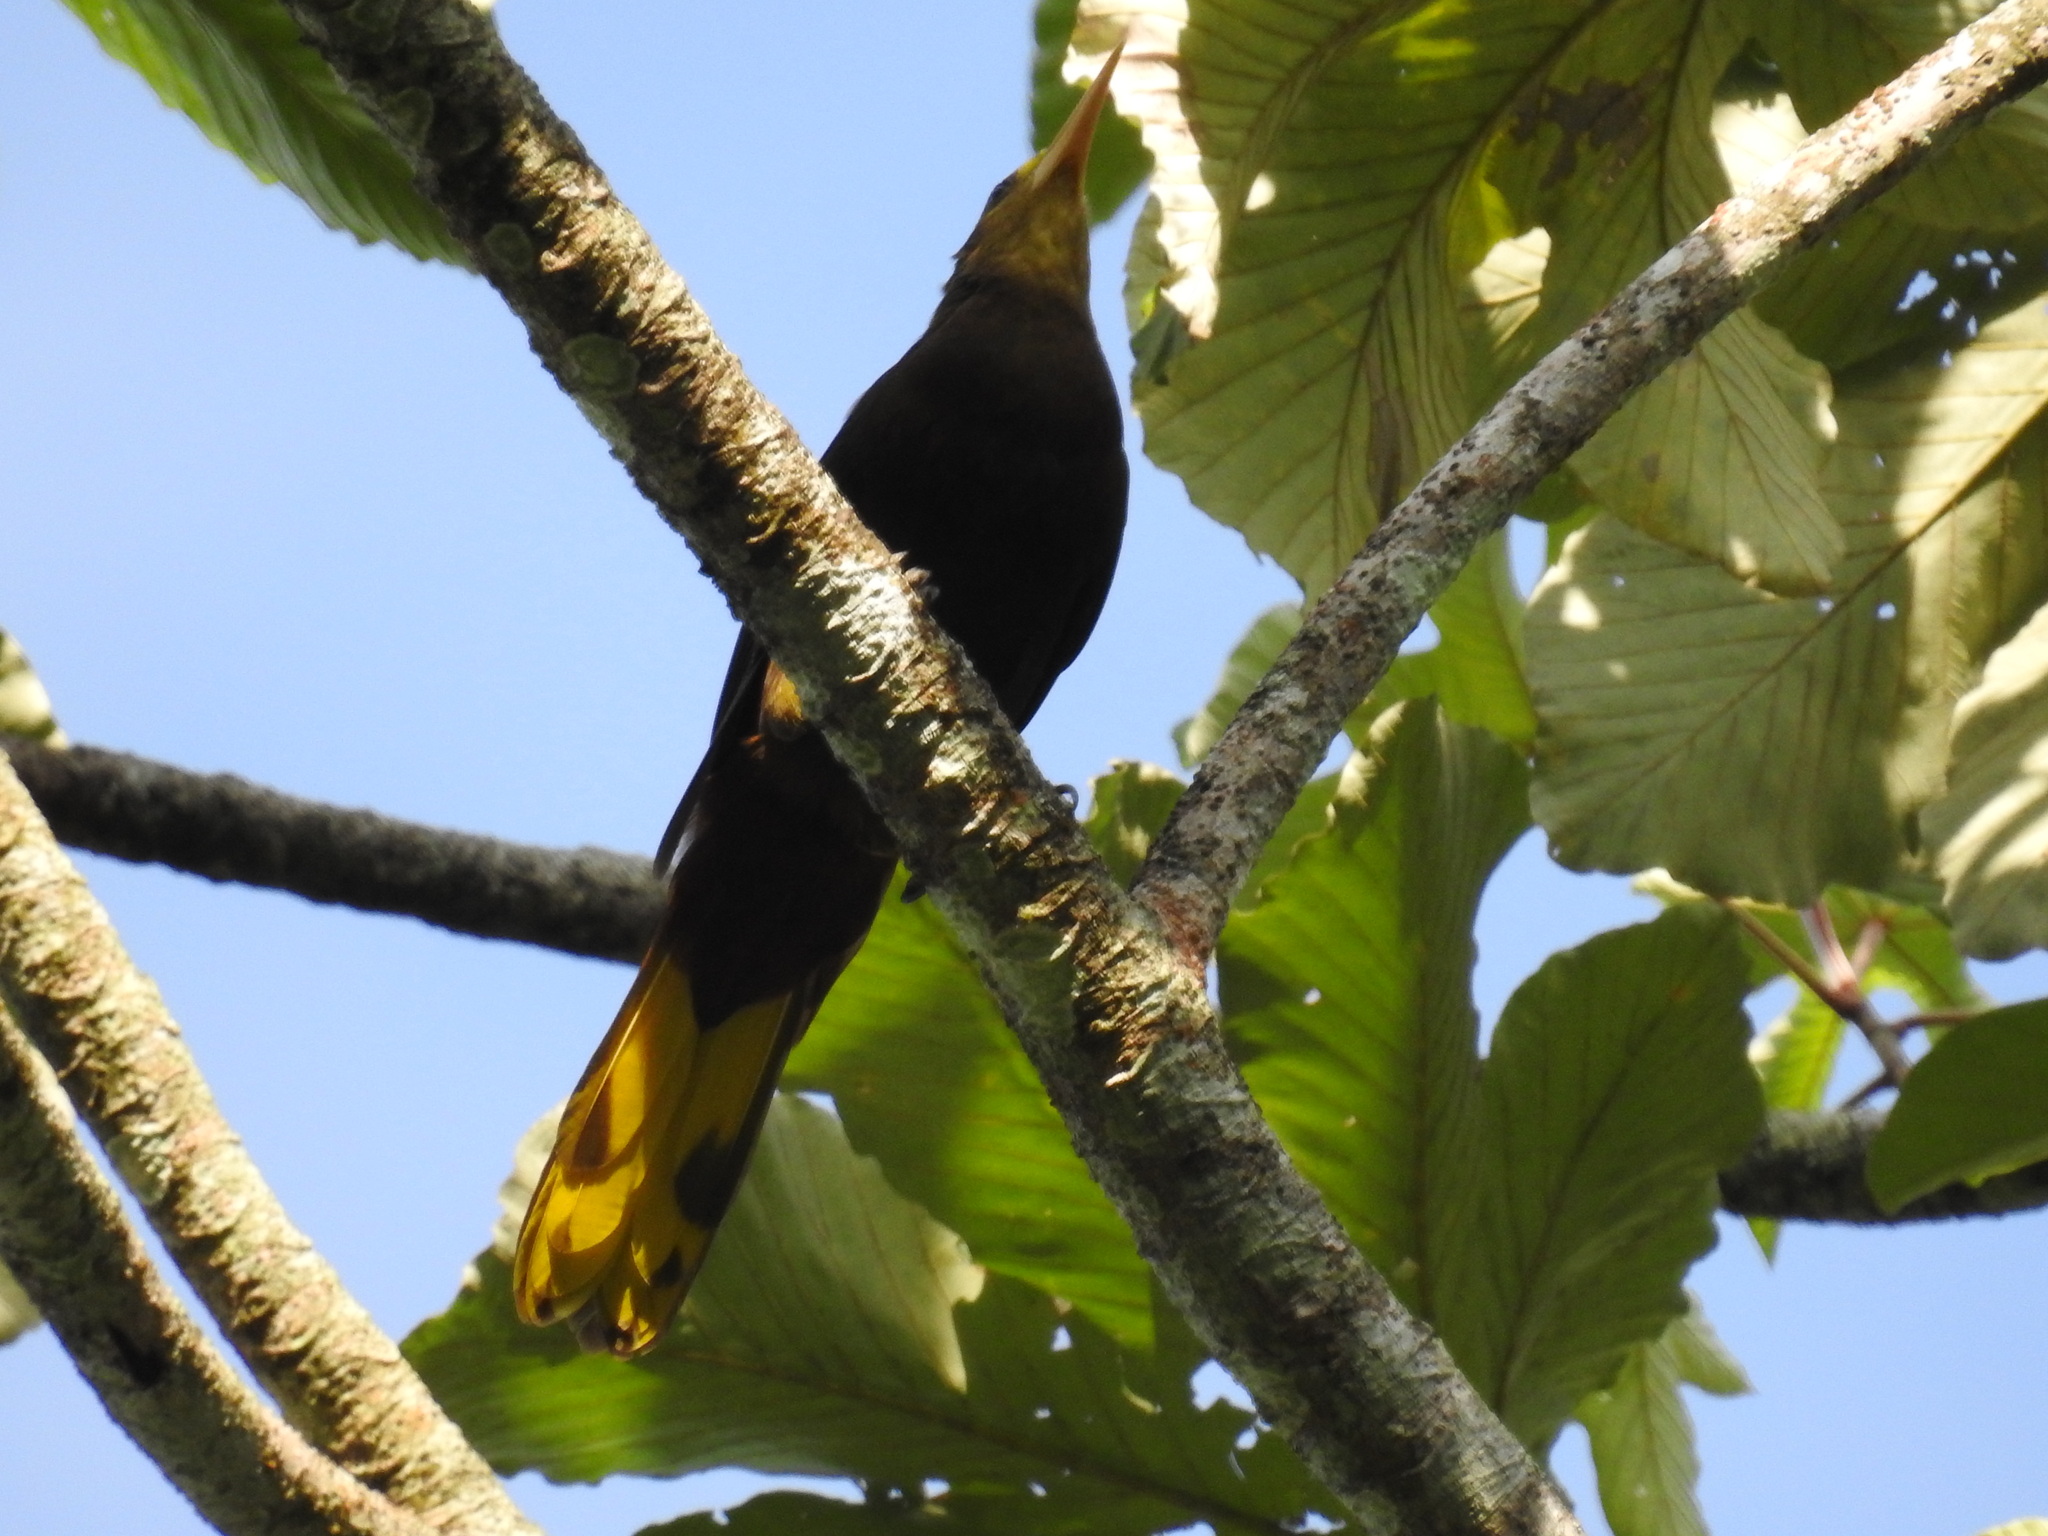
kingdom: Animalia
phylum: Chordata
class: Aves
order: Passeriformes
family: Icteridae
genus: Psarocolius
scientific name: Psarocolius angustifrons
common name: Russet-backed oropendola
